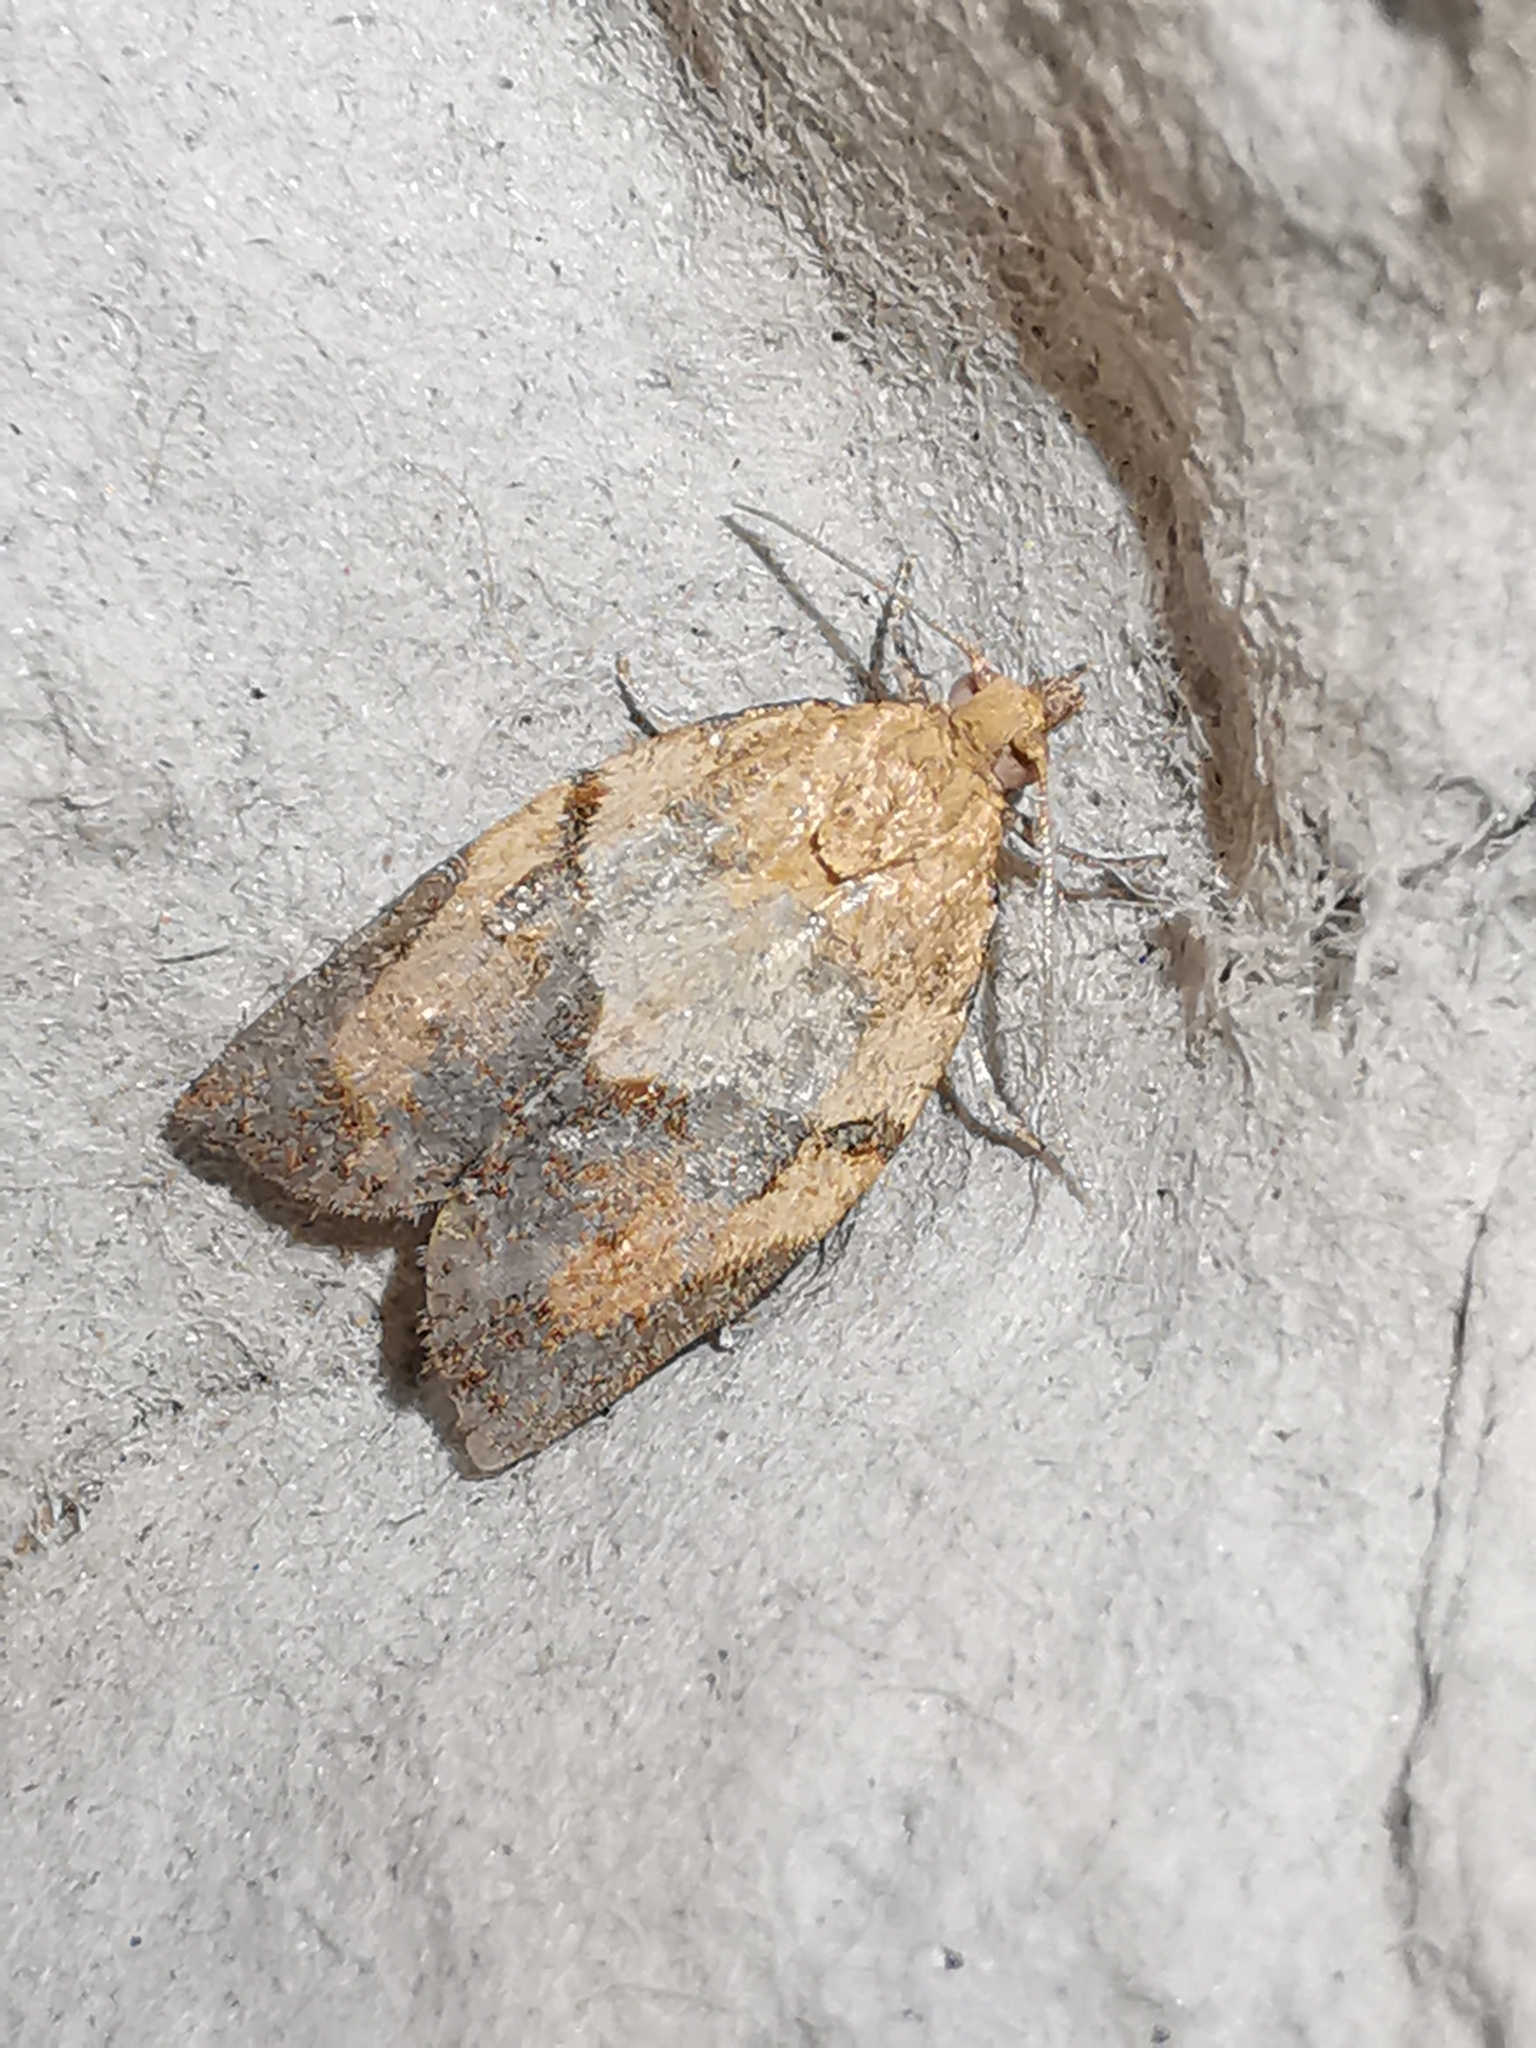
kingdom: Animalia
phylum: Arthropoda
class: Insecta
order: Lepidoptera
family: Tortricidae
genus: Epiphyas
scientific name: Epiphyas postvittana
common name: Light brown apple moth
